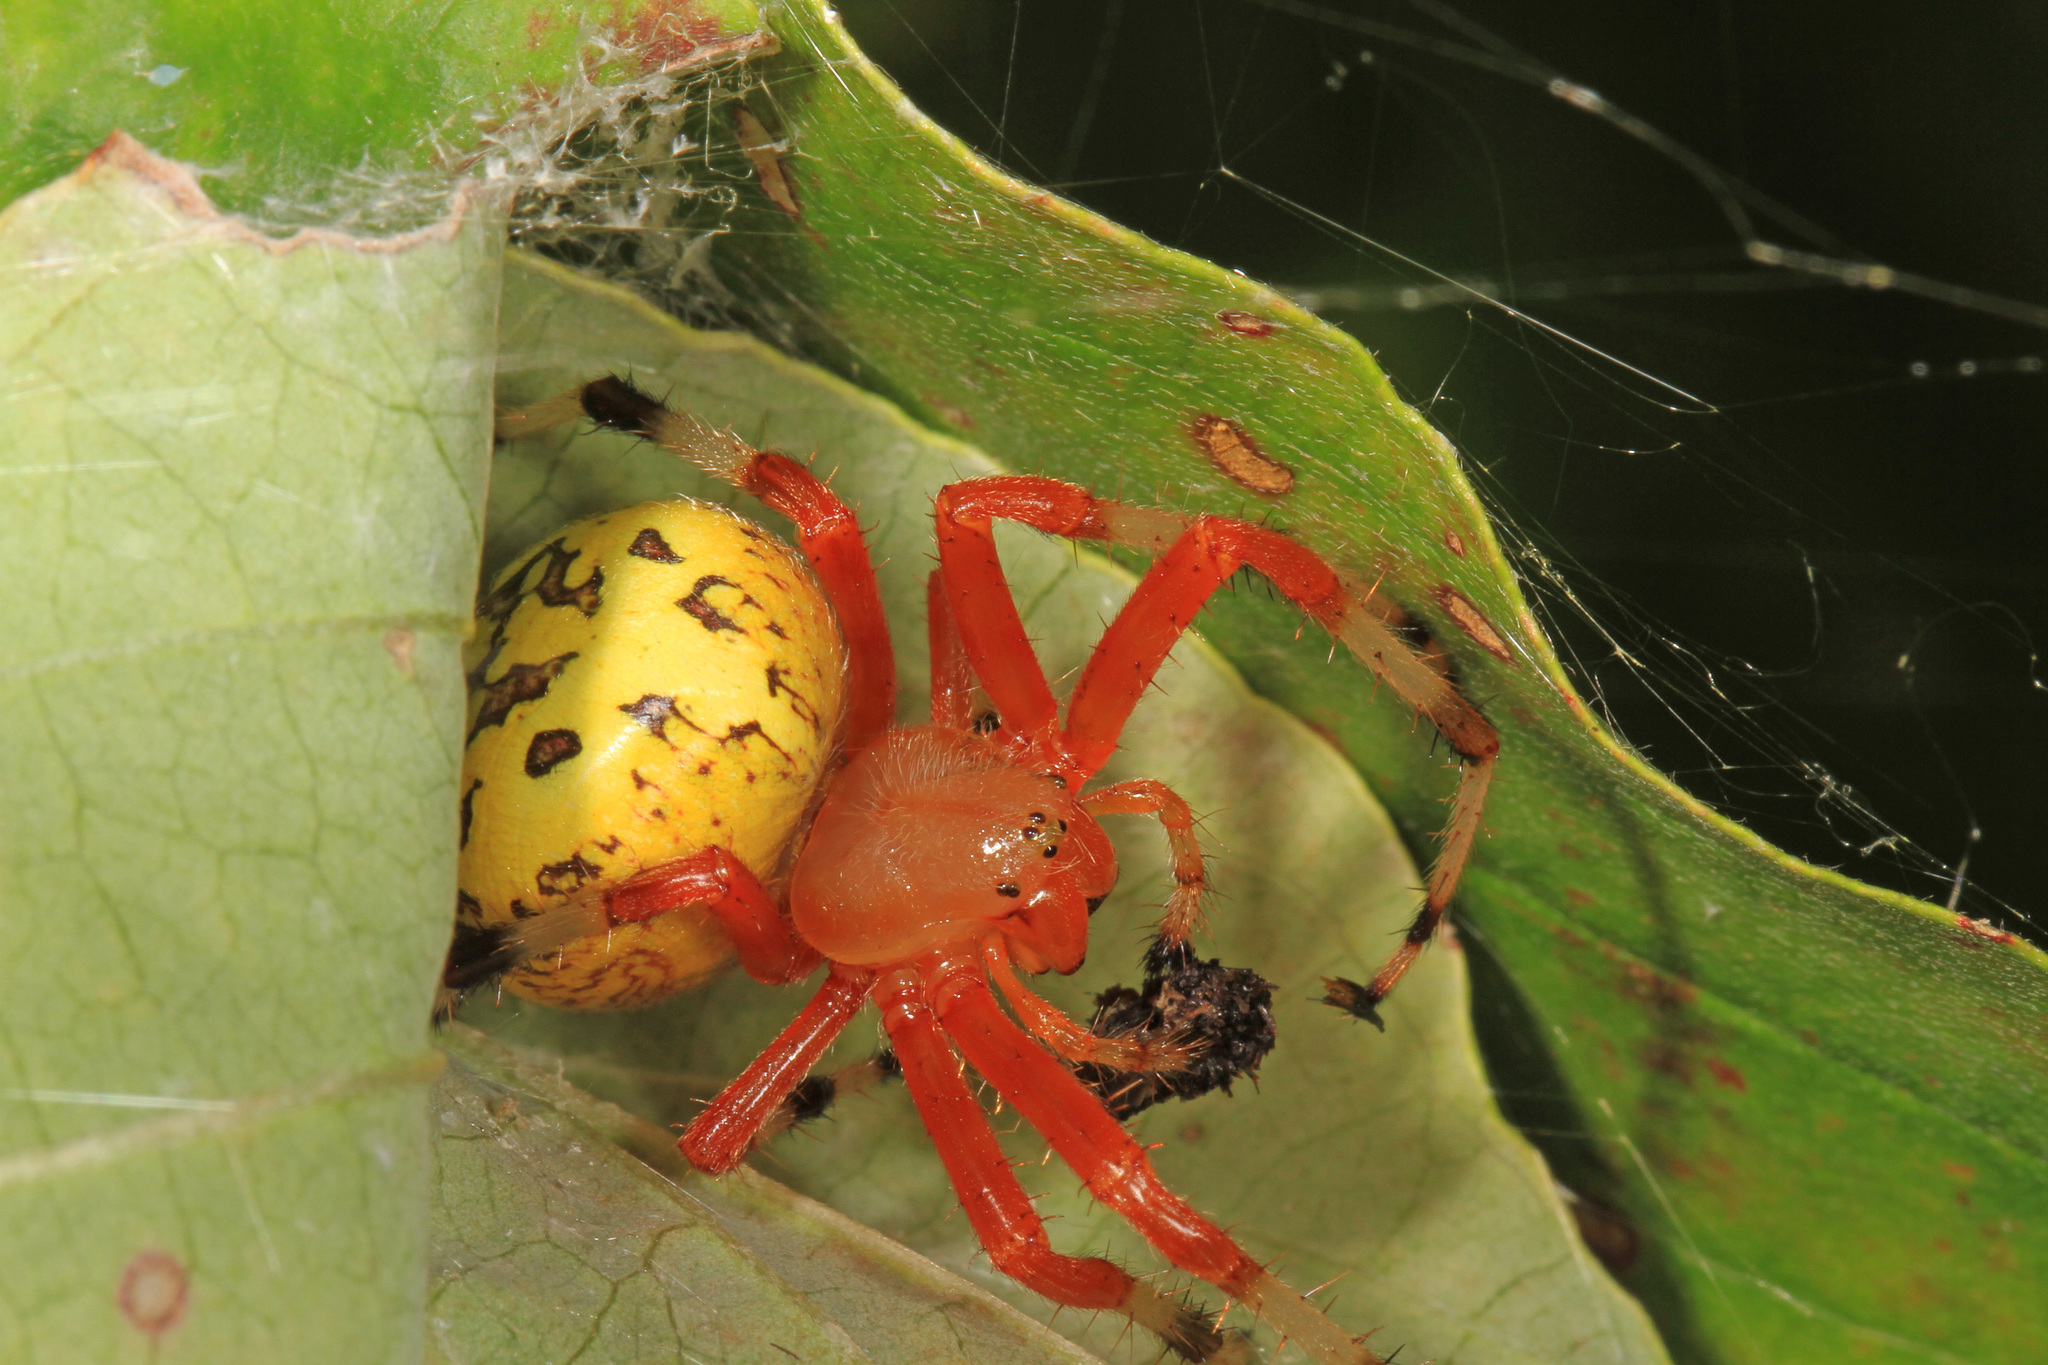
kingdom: Animalia
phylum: Arthropoda
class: Arachnida
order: Araneae
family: Araneidae
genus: Araneus
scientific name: Araneus marmoreus
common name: Marbled orbweaver
